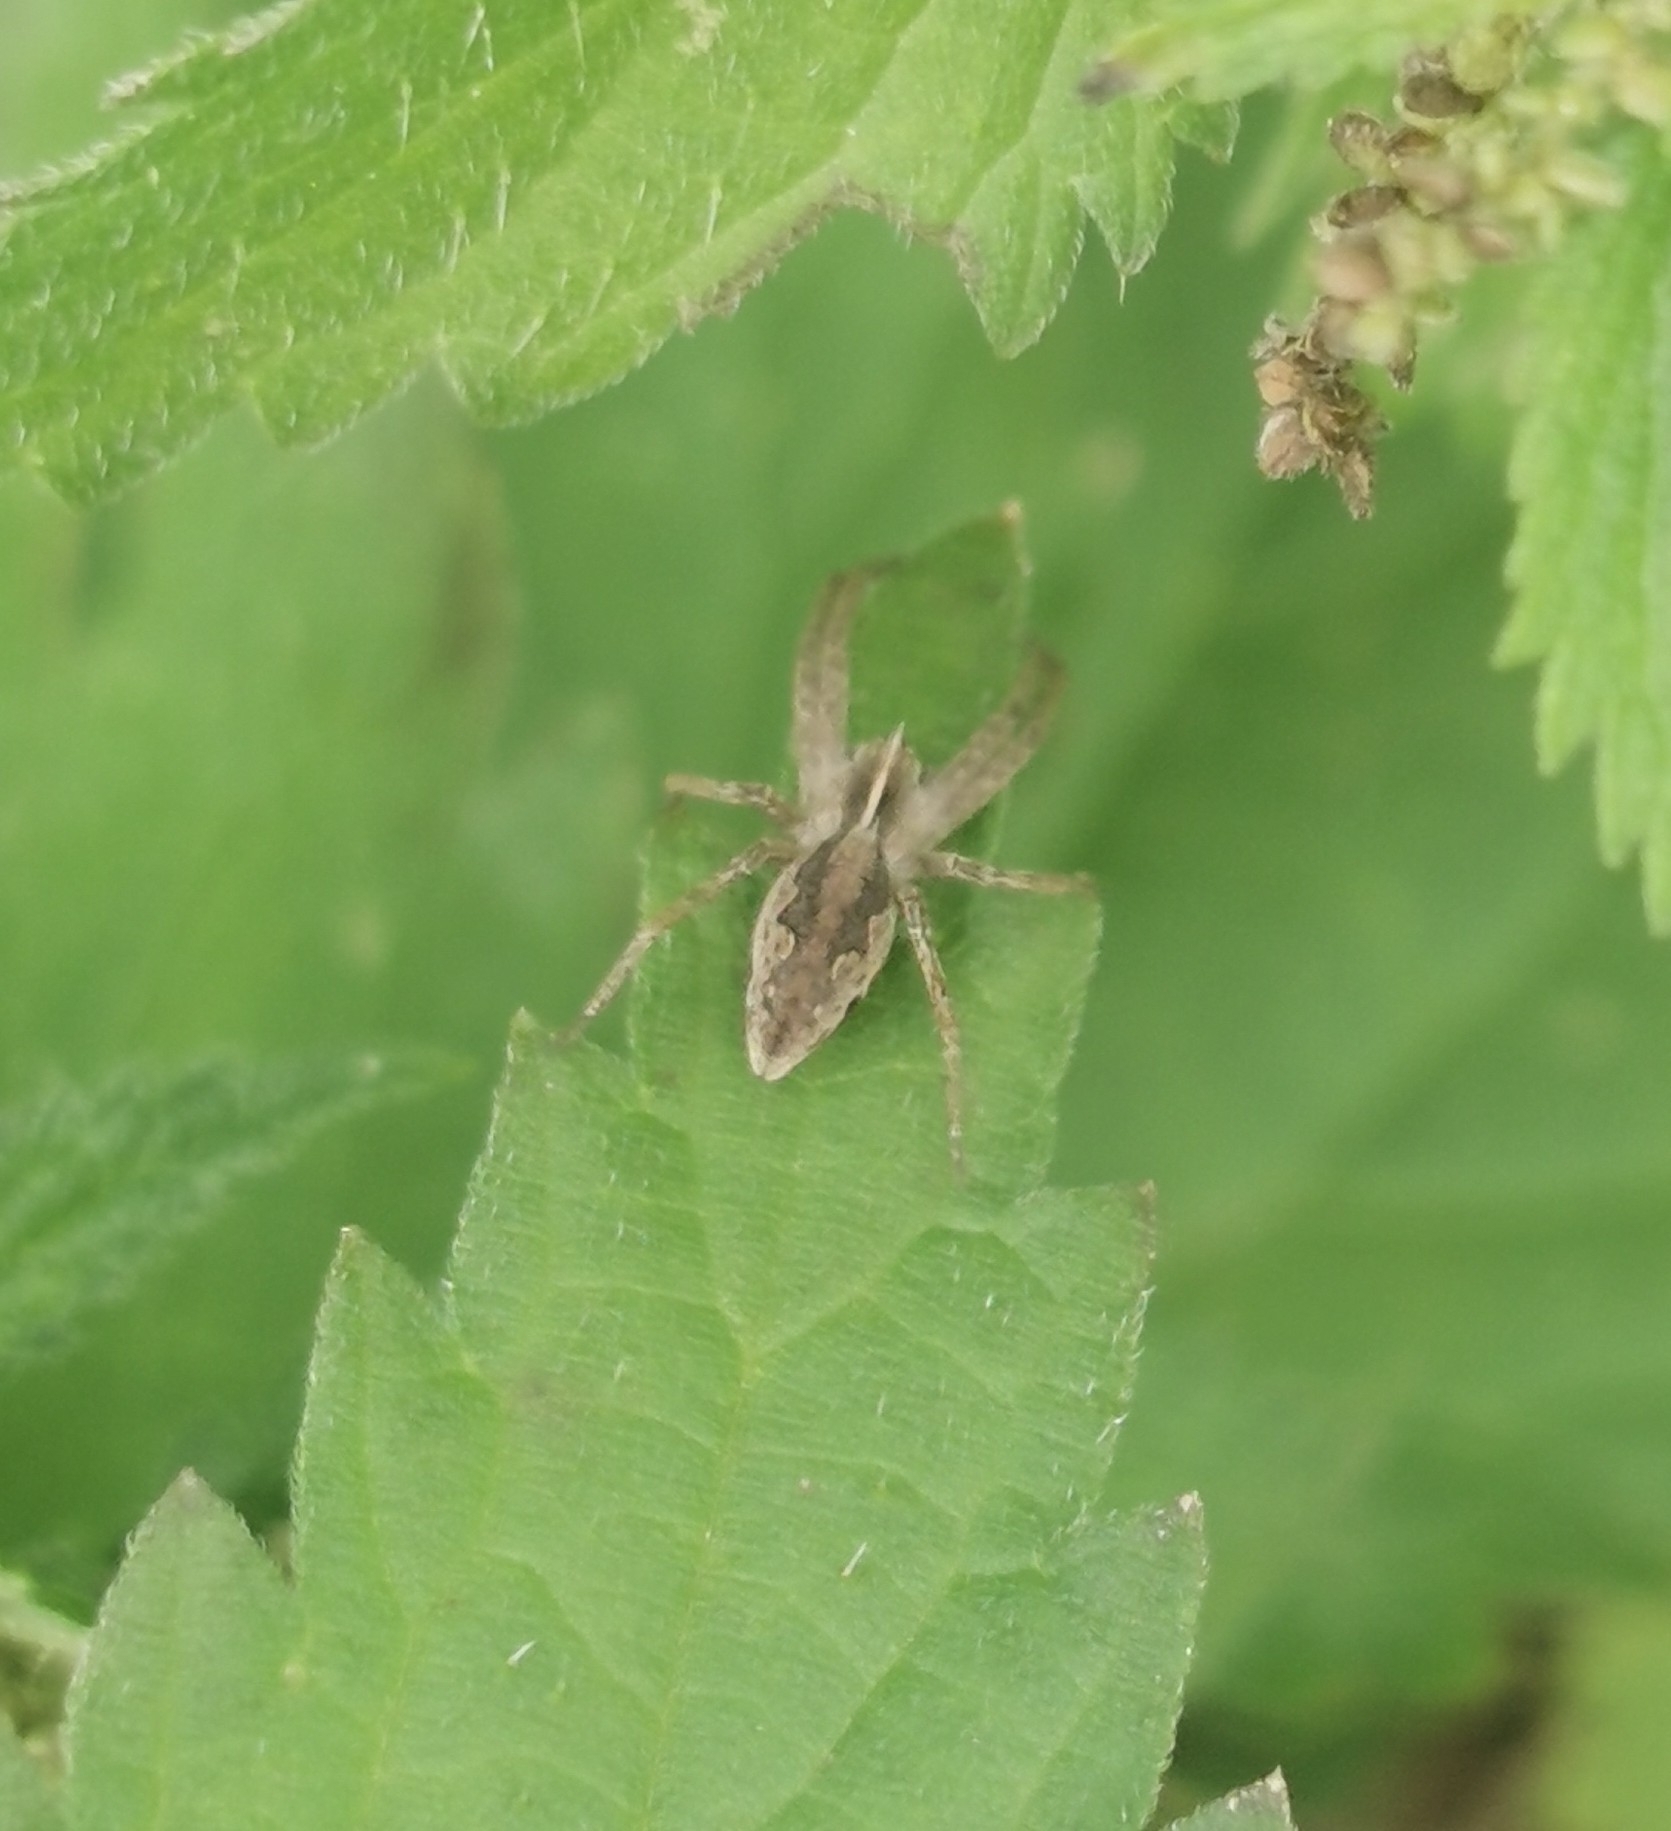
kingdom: Animalia
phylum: Arthropoda
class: Arachnida
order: Araneae
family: Pisauridae
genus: Pisaura
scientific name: Pisaura mirabilis
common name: Tent spider
